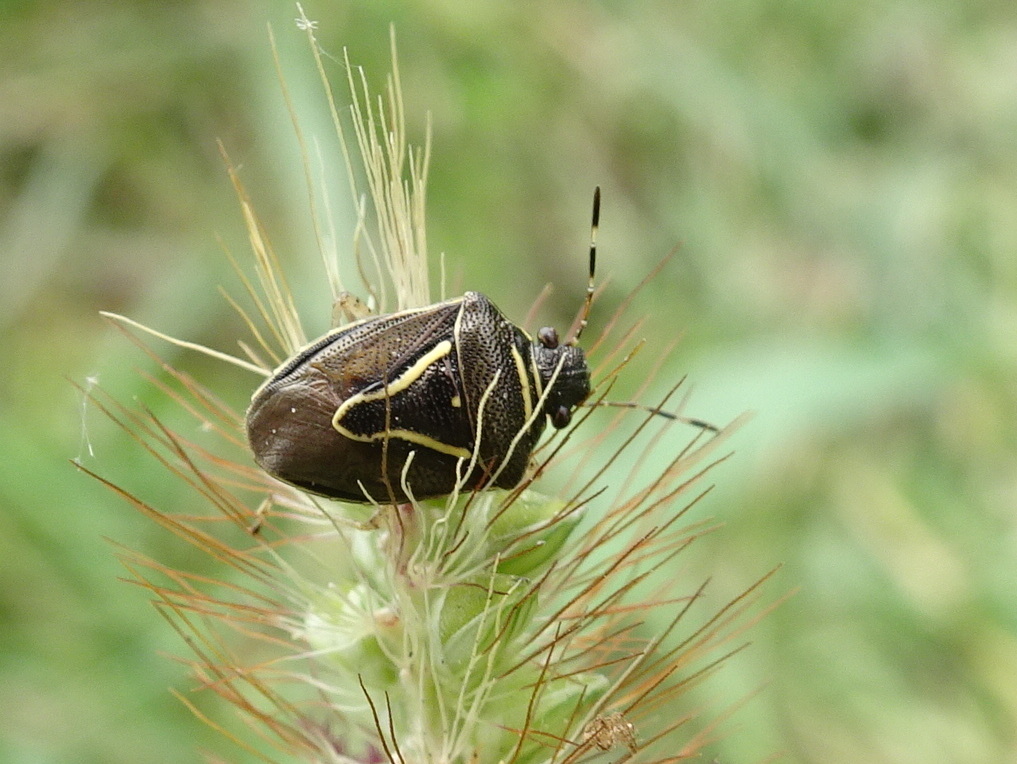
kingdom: Animalia
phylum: Arthropoda
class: Insecta
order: Hemiptera
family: Pentatomidae
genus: Mormidea
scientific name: Mormidea lugens
